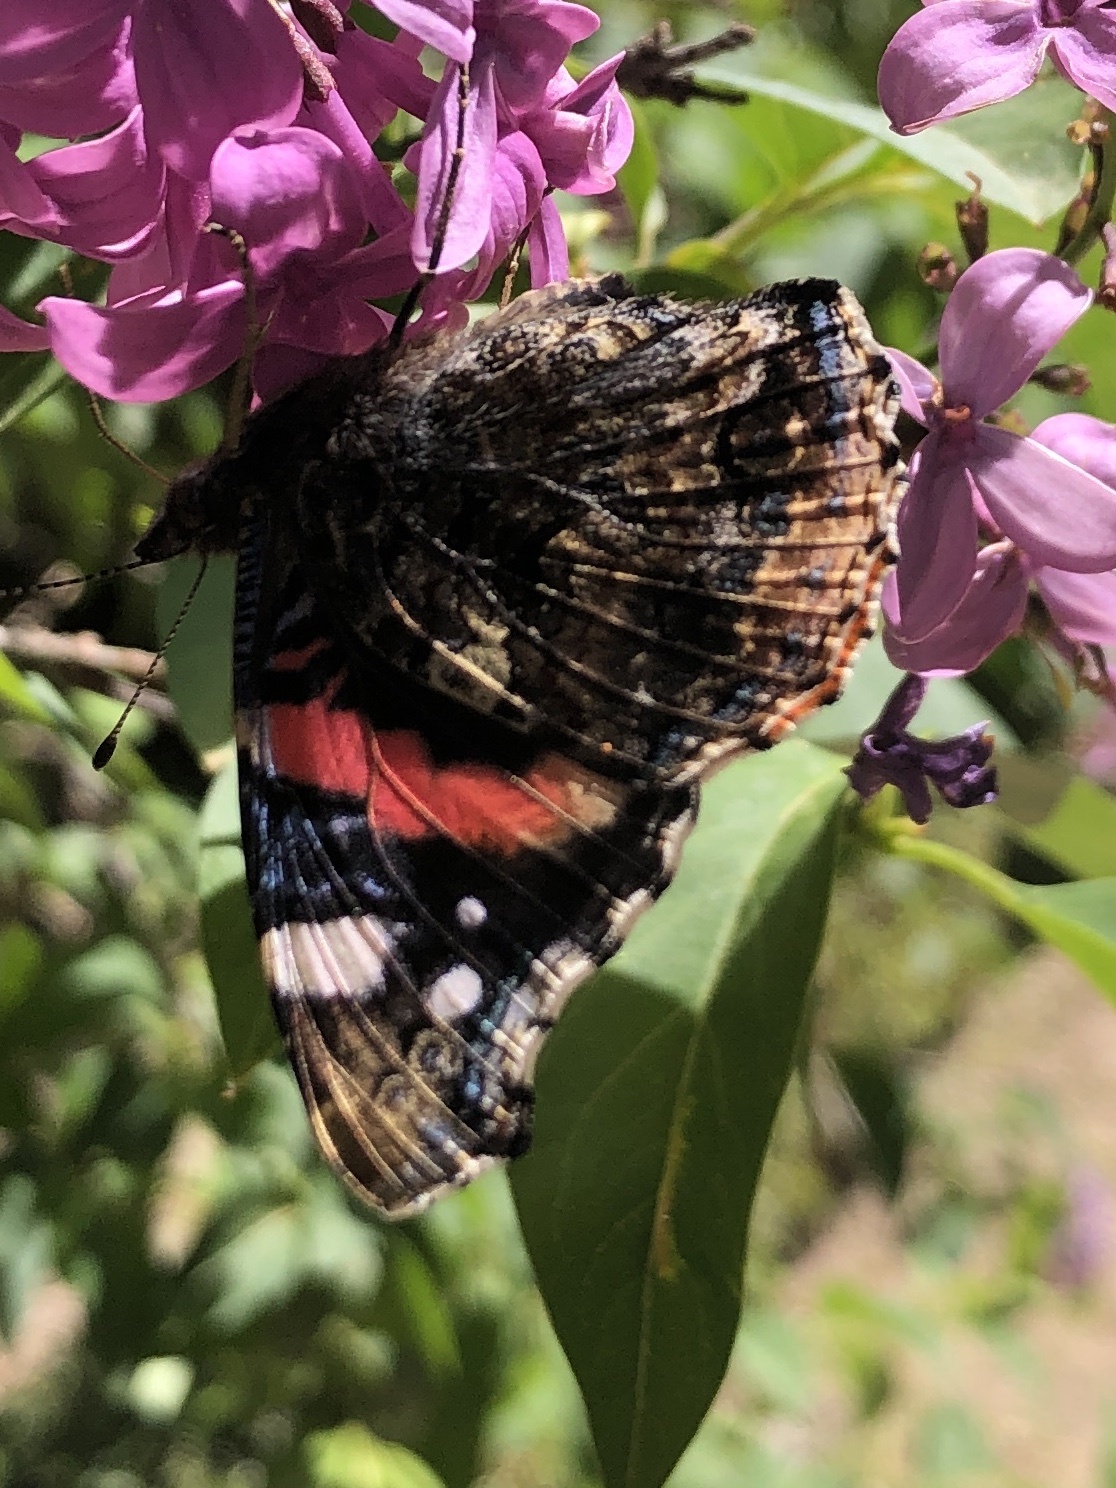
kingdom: Animalia
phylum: Arthropoda
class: Insecta
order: Lepidoptera
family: Nymphalidae
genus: Vanessa
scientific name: Vanessa atalanta
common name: Red admiral
